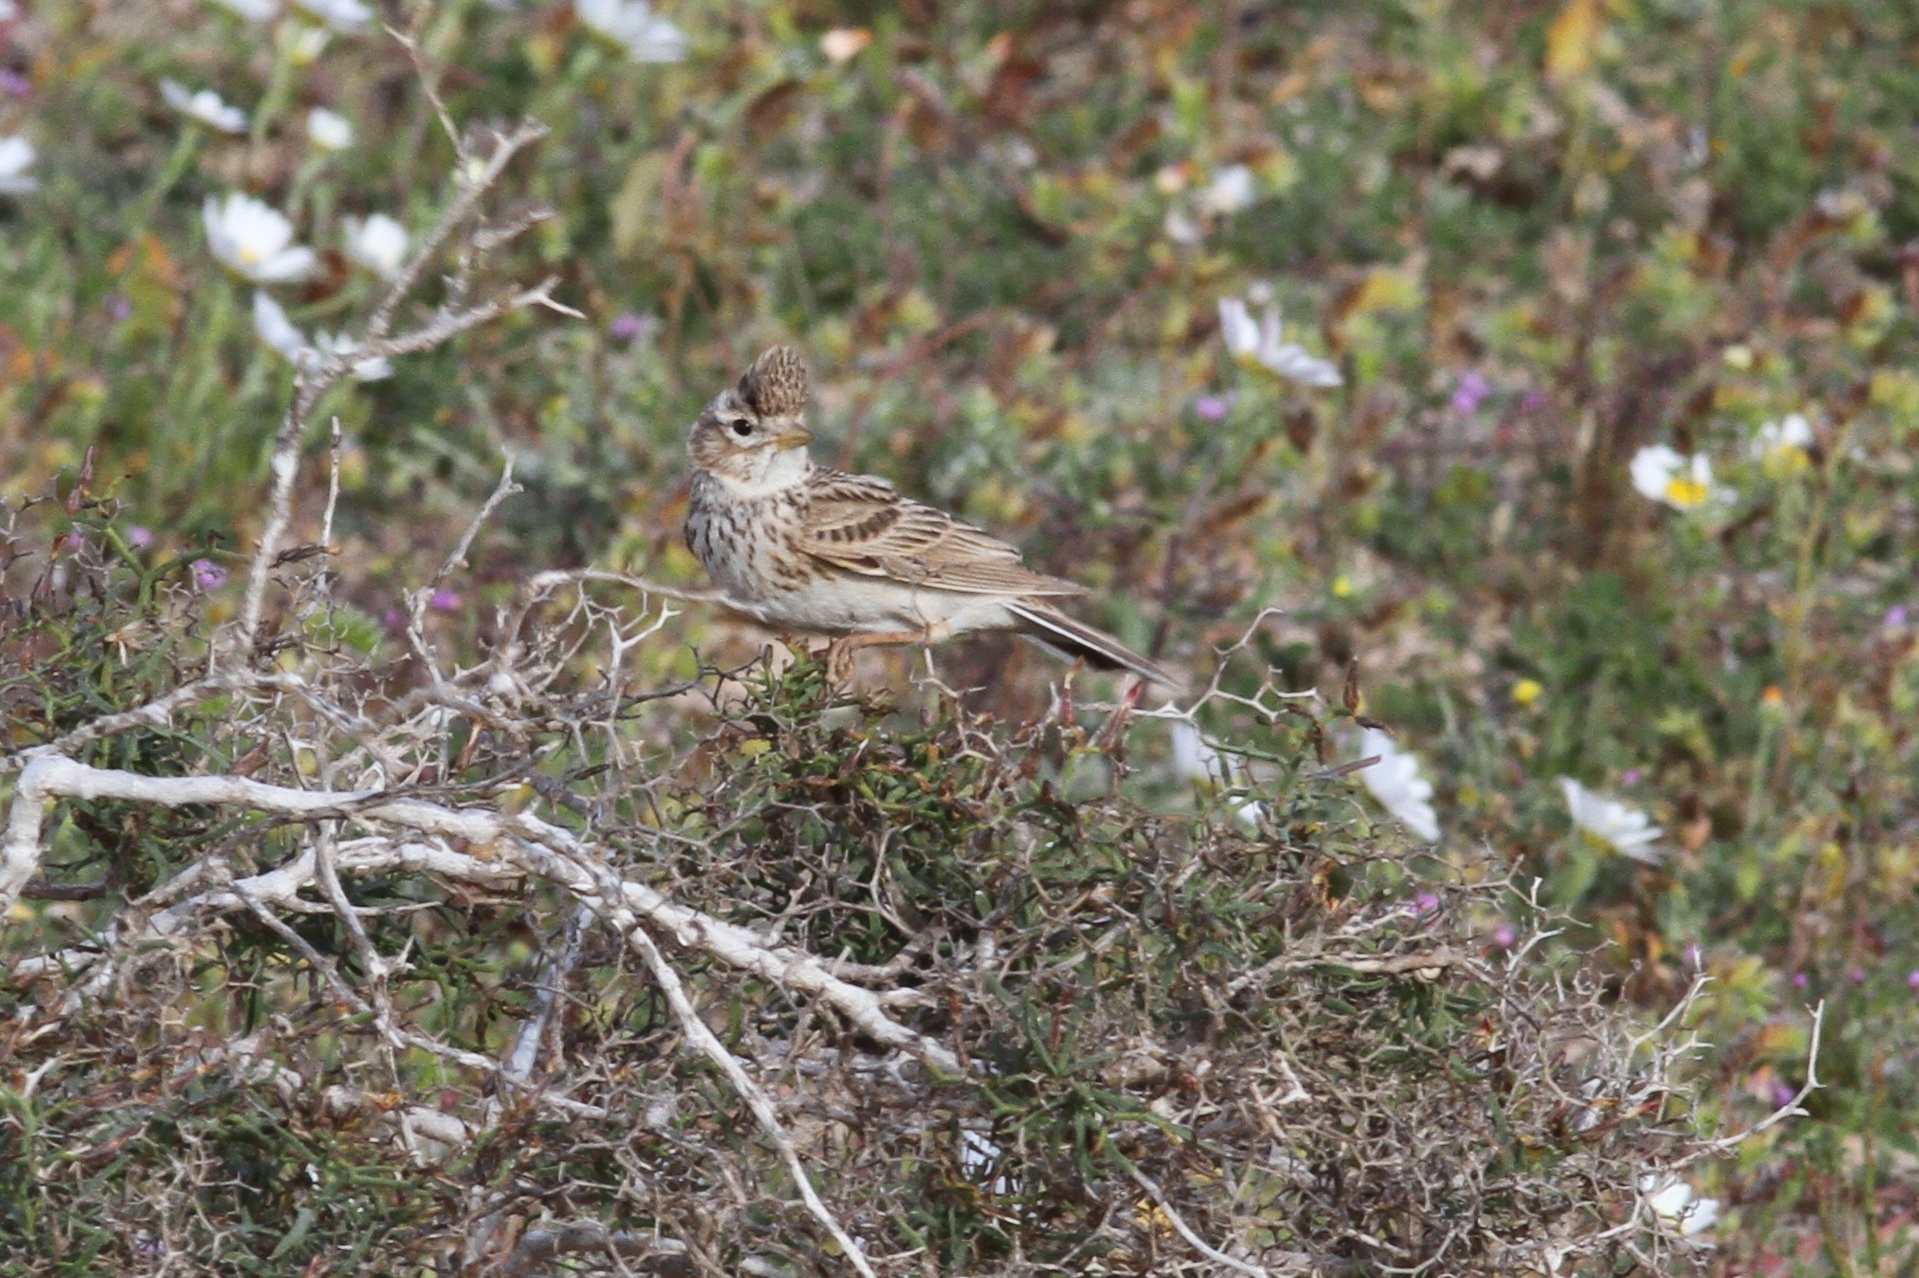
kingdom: Animalia
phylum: Chordata
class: Aves
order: Passeriformes
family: Alaudidae
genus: Calandrella
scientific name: Calandrella rufescens
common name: Lesser short-toed lark
